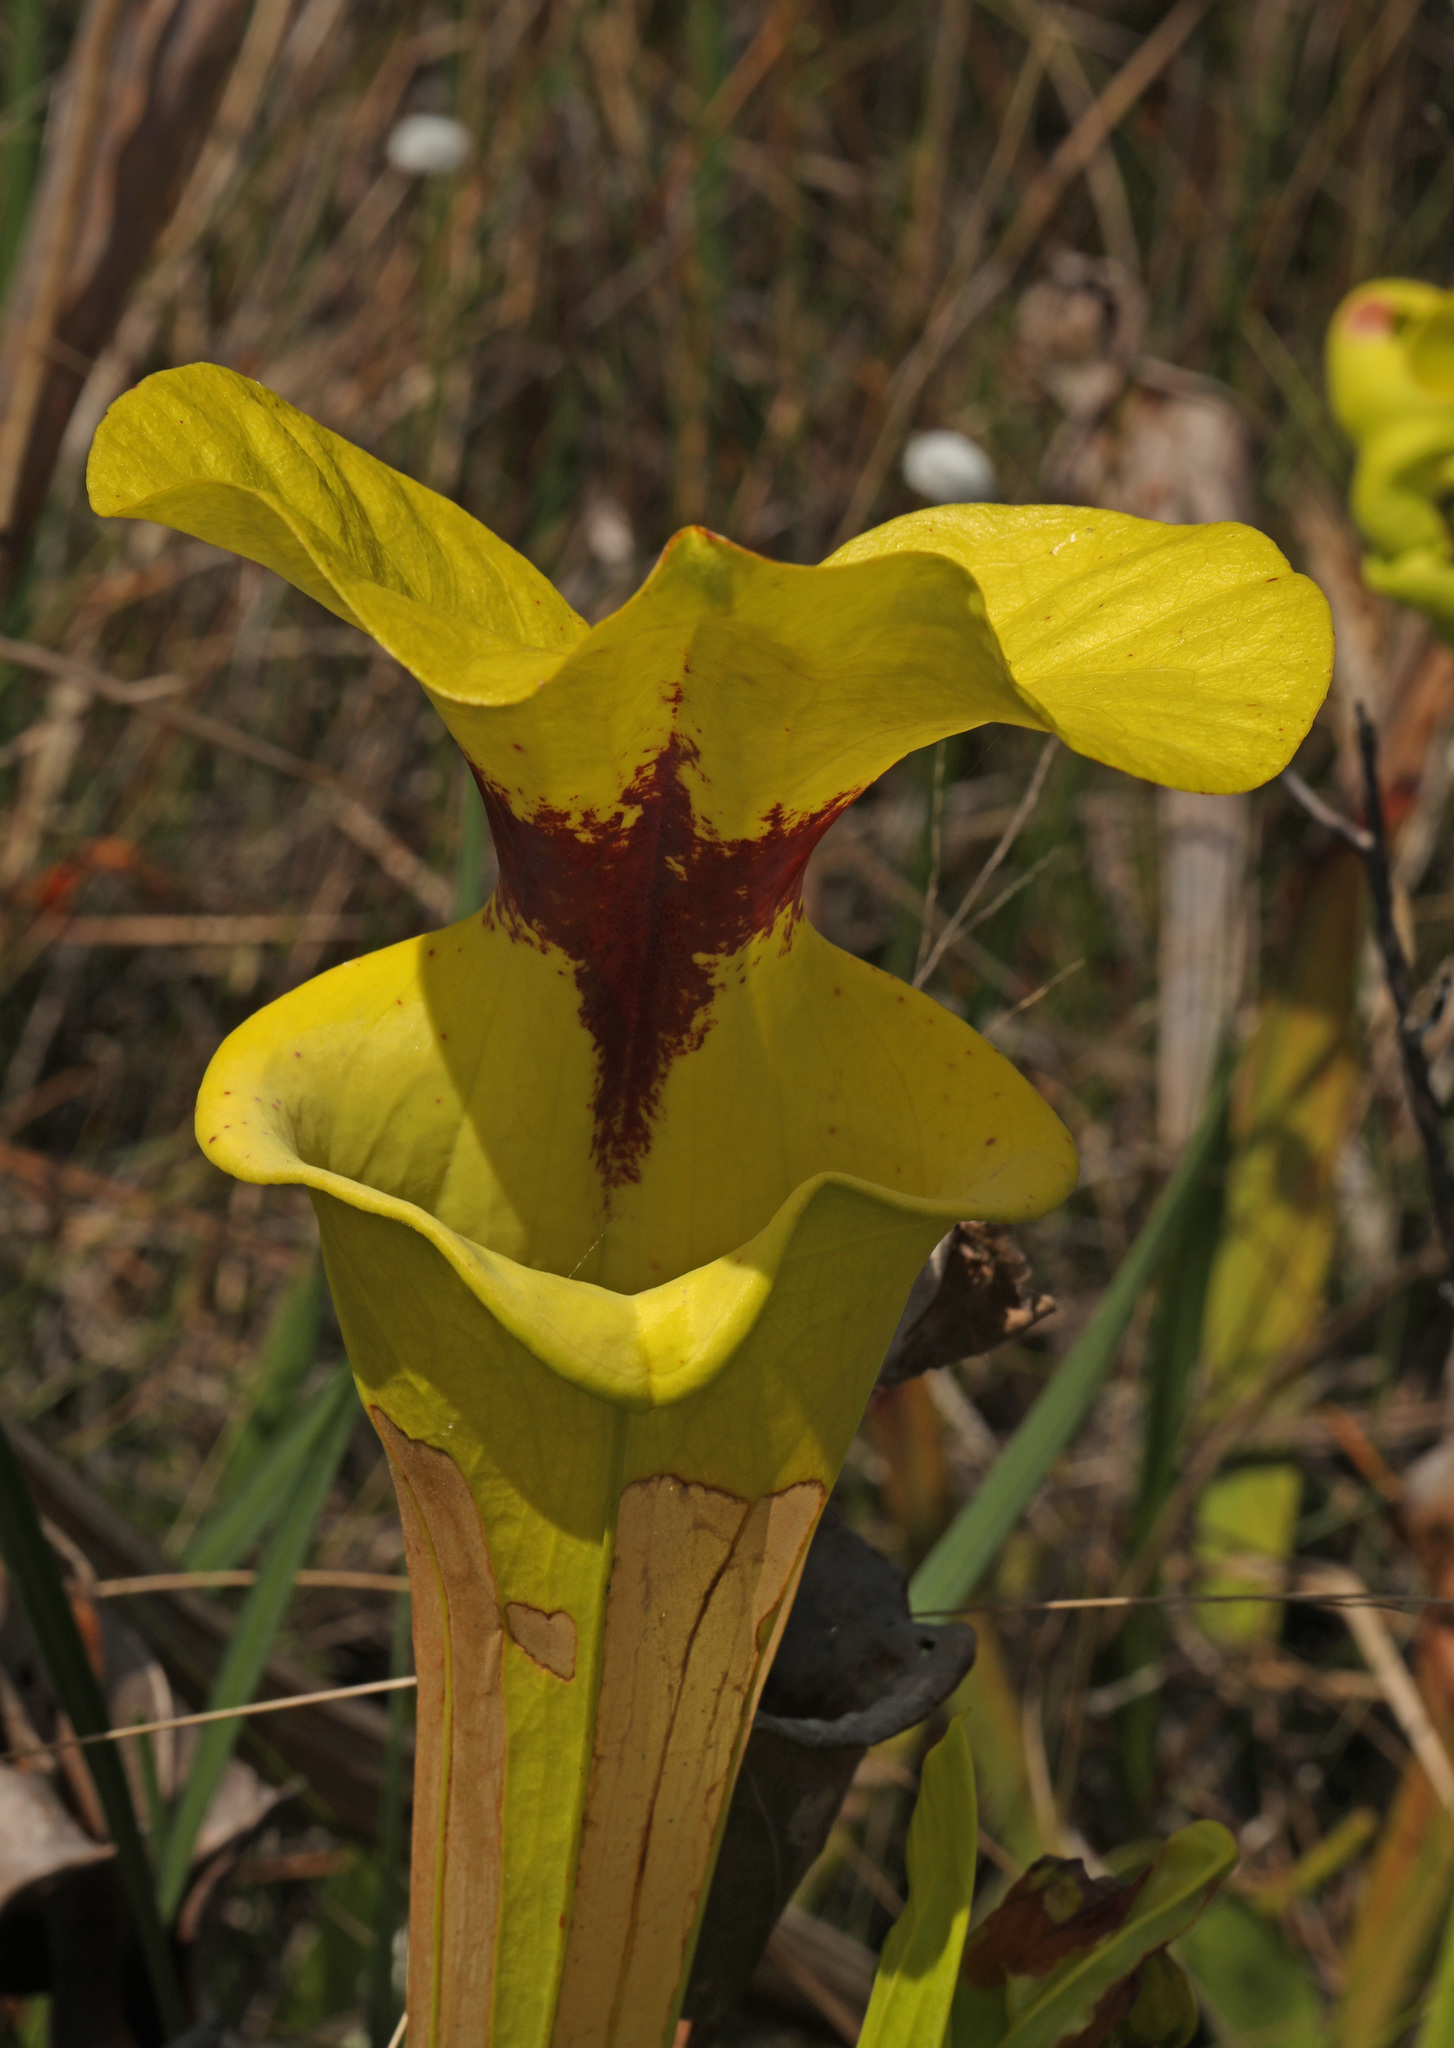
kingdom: Plantae
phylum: Tracheophyta
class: Magnoliopsida
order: Ericales
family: Sarraceniaceae
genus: Sarracenia
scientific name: Sarracenia flava
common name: Trumpets
